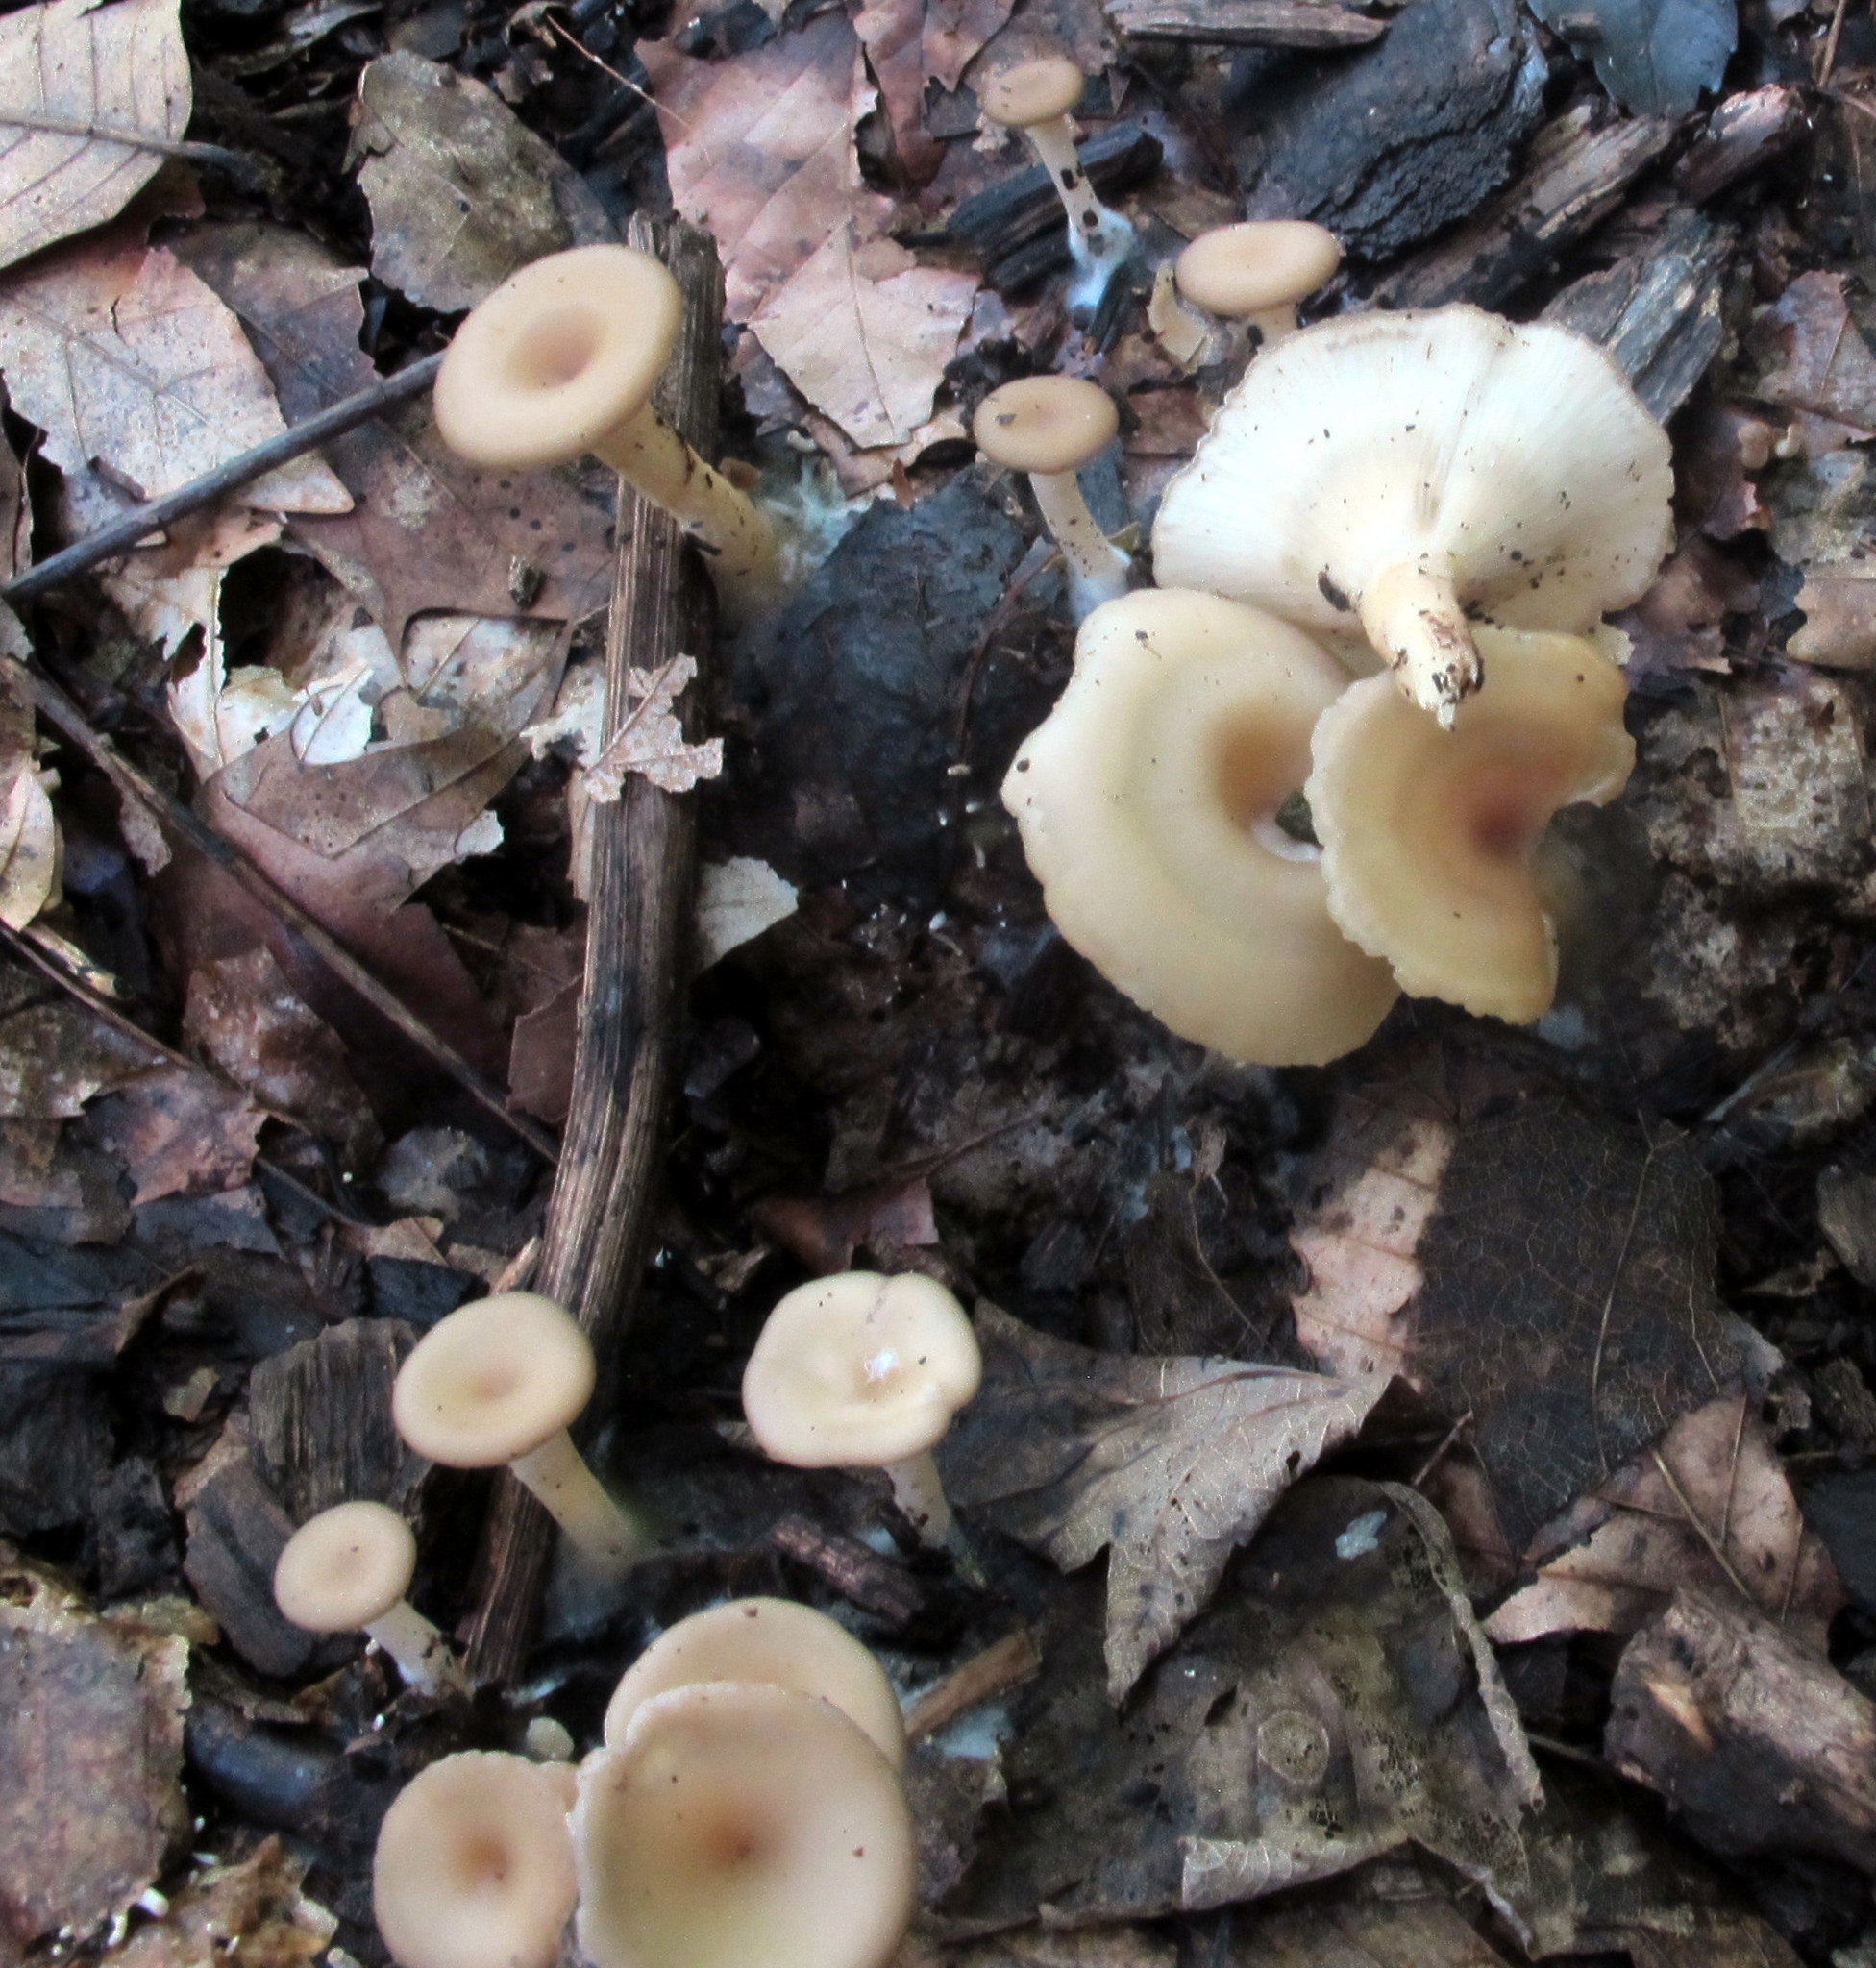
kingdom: Fungi
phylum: Basidiomycota
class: Agaricomycetes
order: Agaricales
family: Tricholomataceae
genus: Singerocybe
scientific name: Singerocybe adirondackensis
